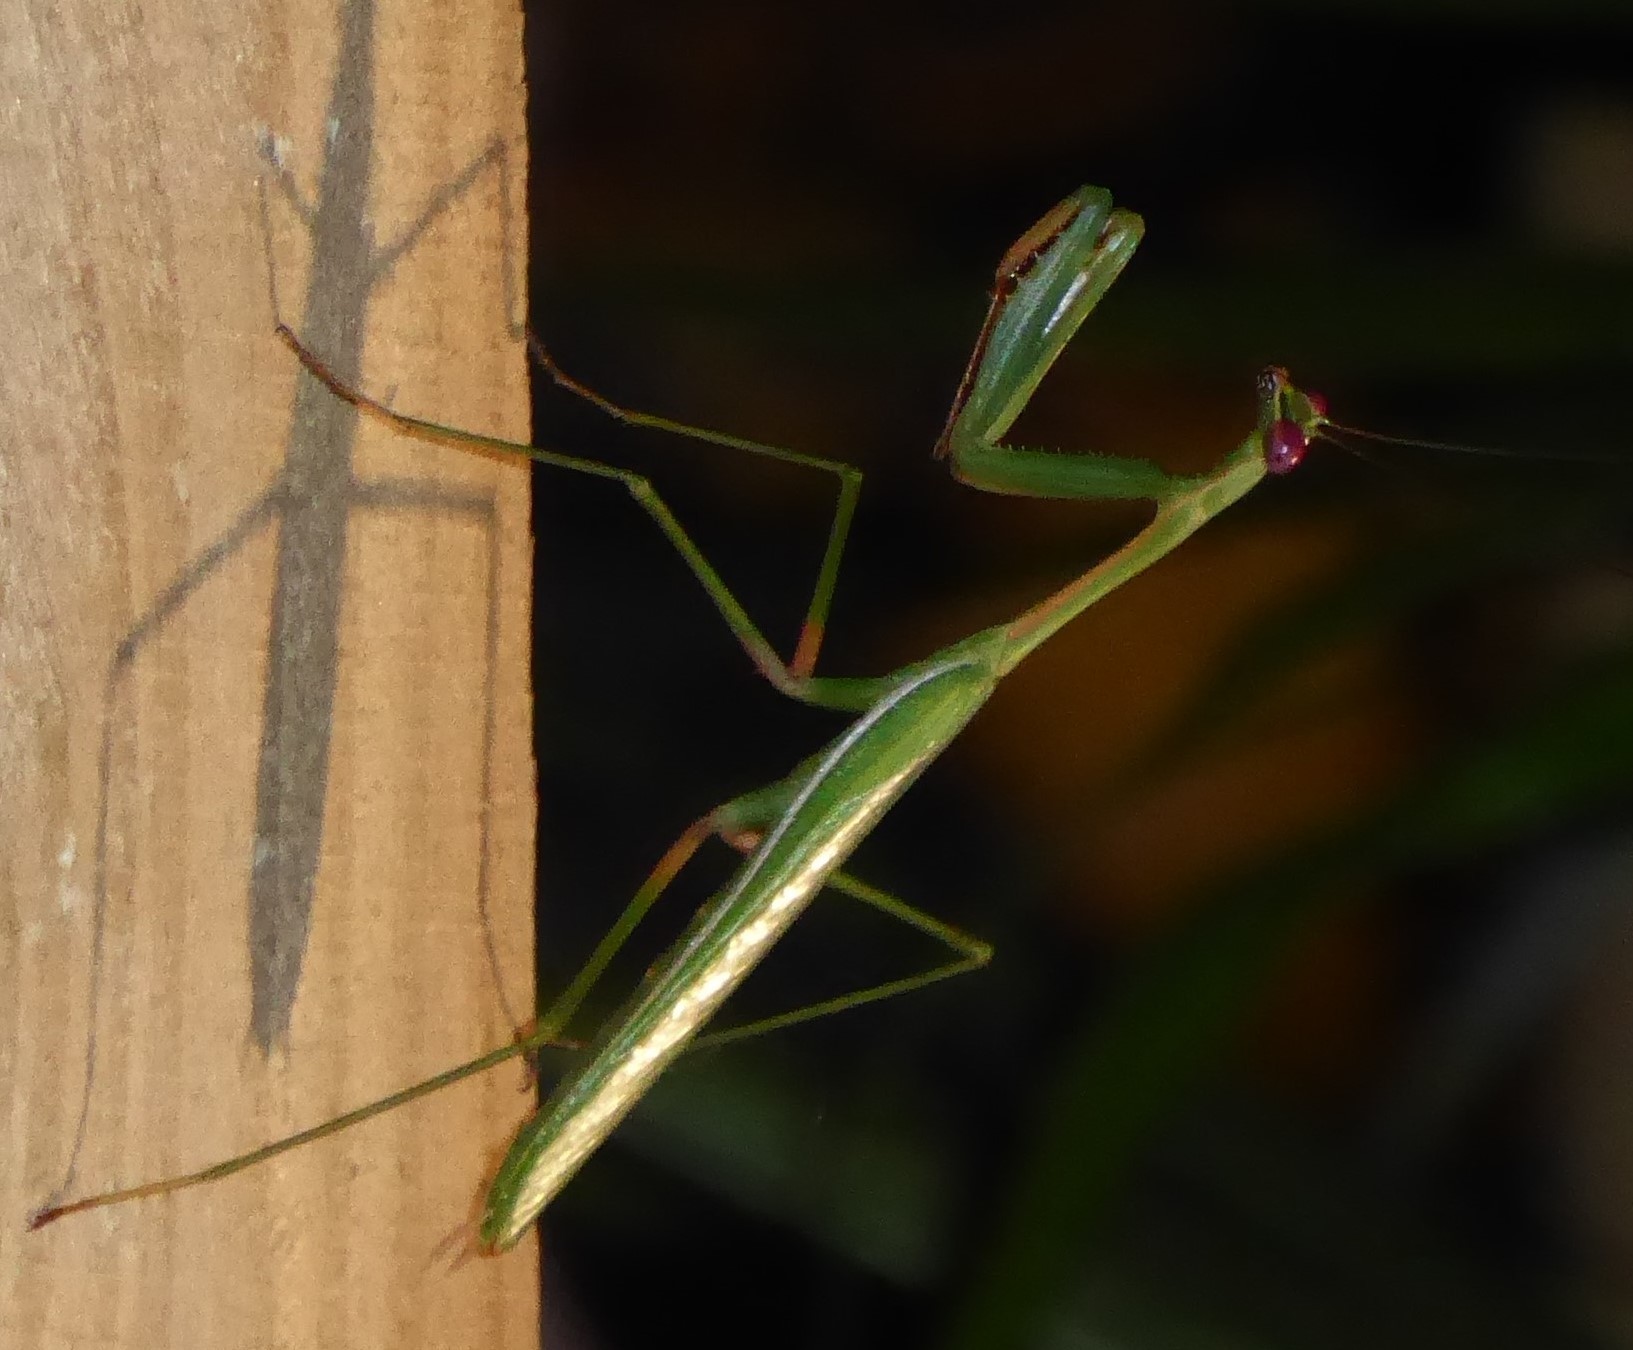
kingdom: Animalia
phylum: Arthropoda
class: Insecta
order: Mantodea
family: Mantidae
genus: Pseudomantis
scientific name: Pseudomantis albofimbriata
